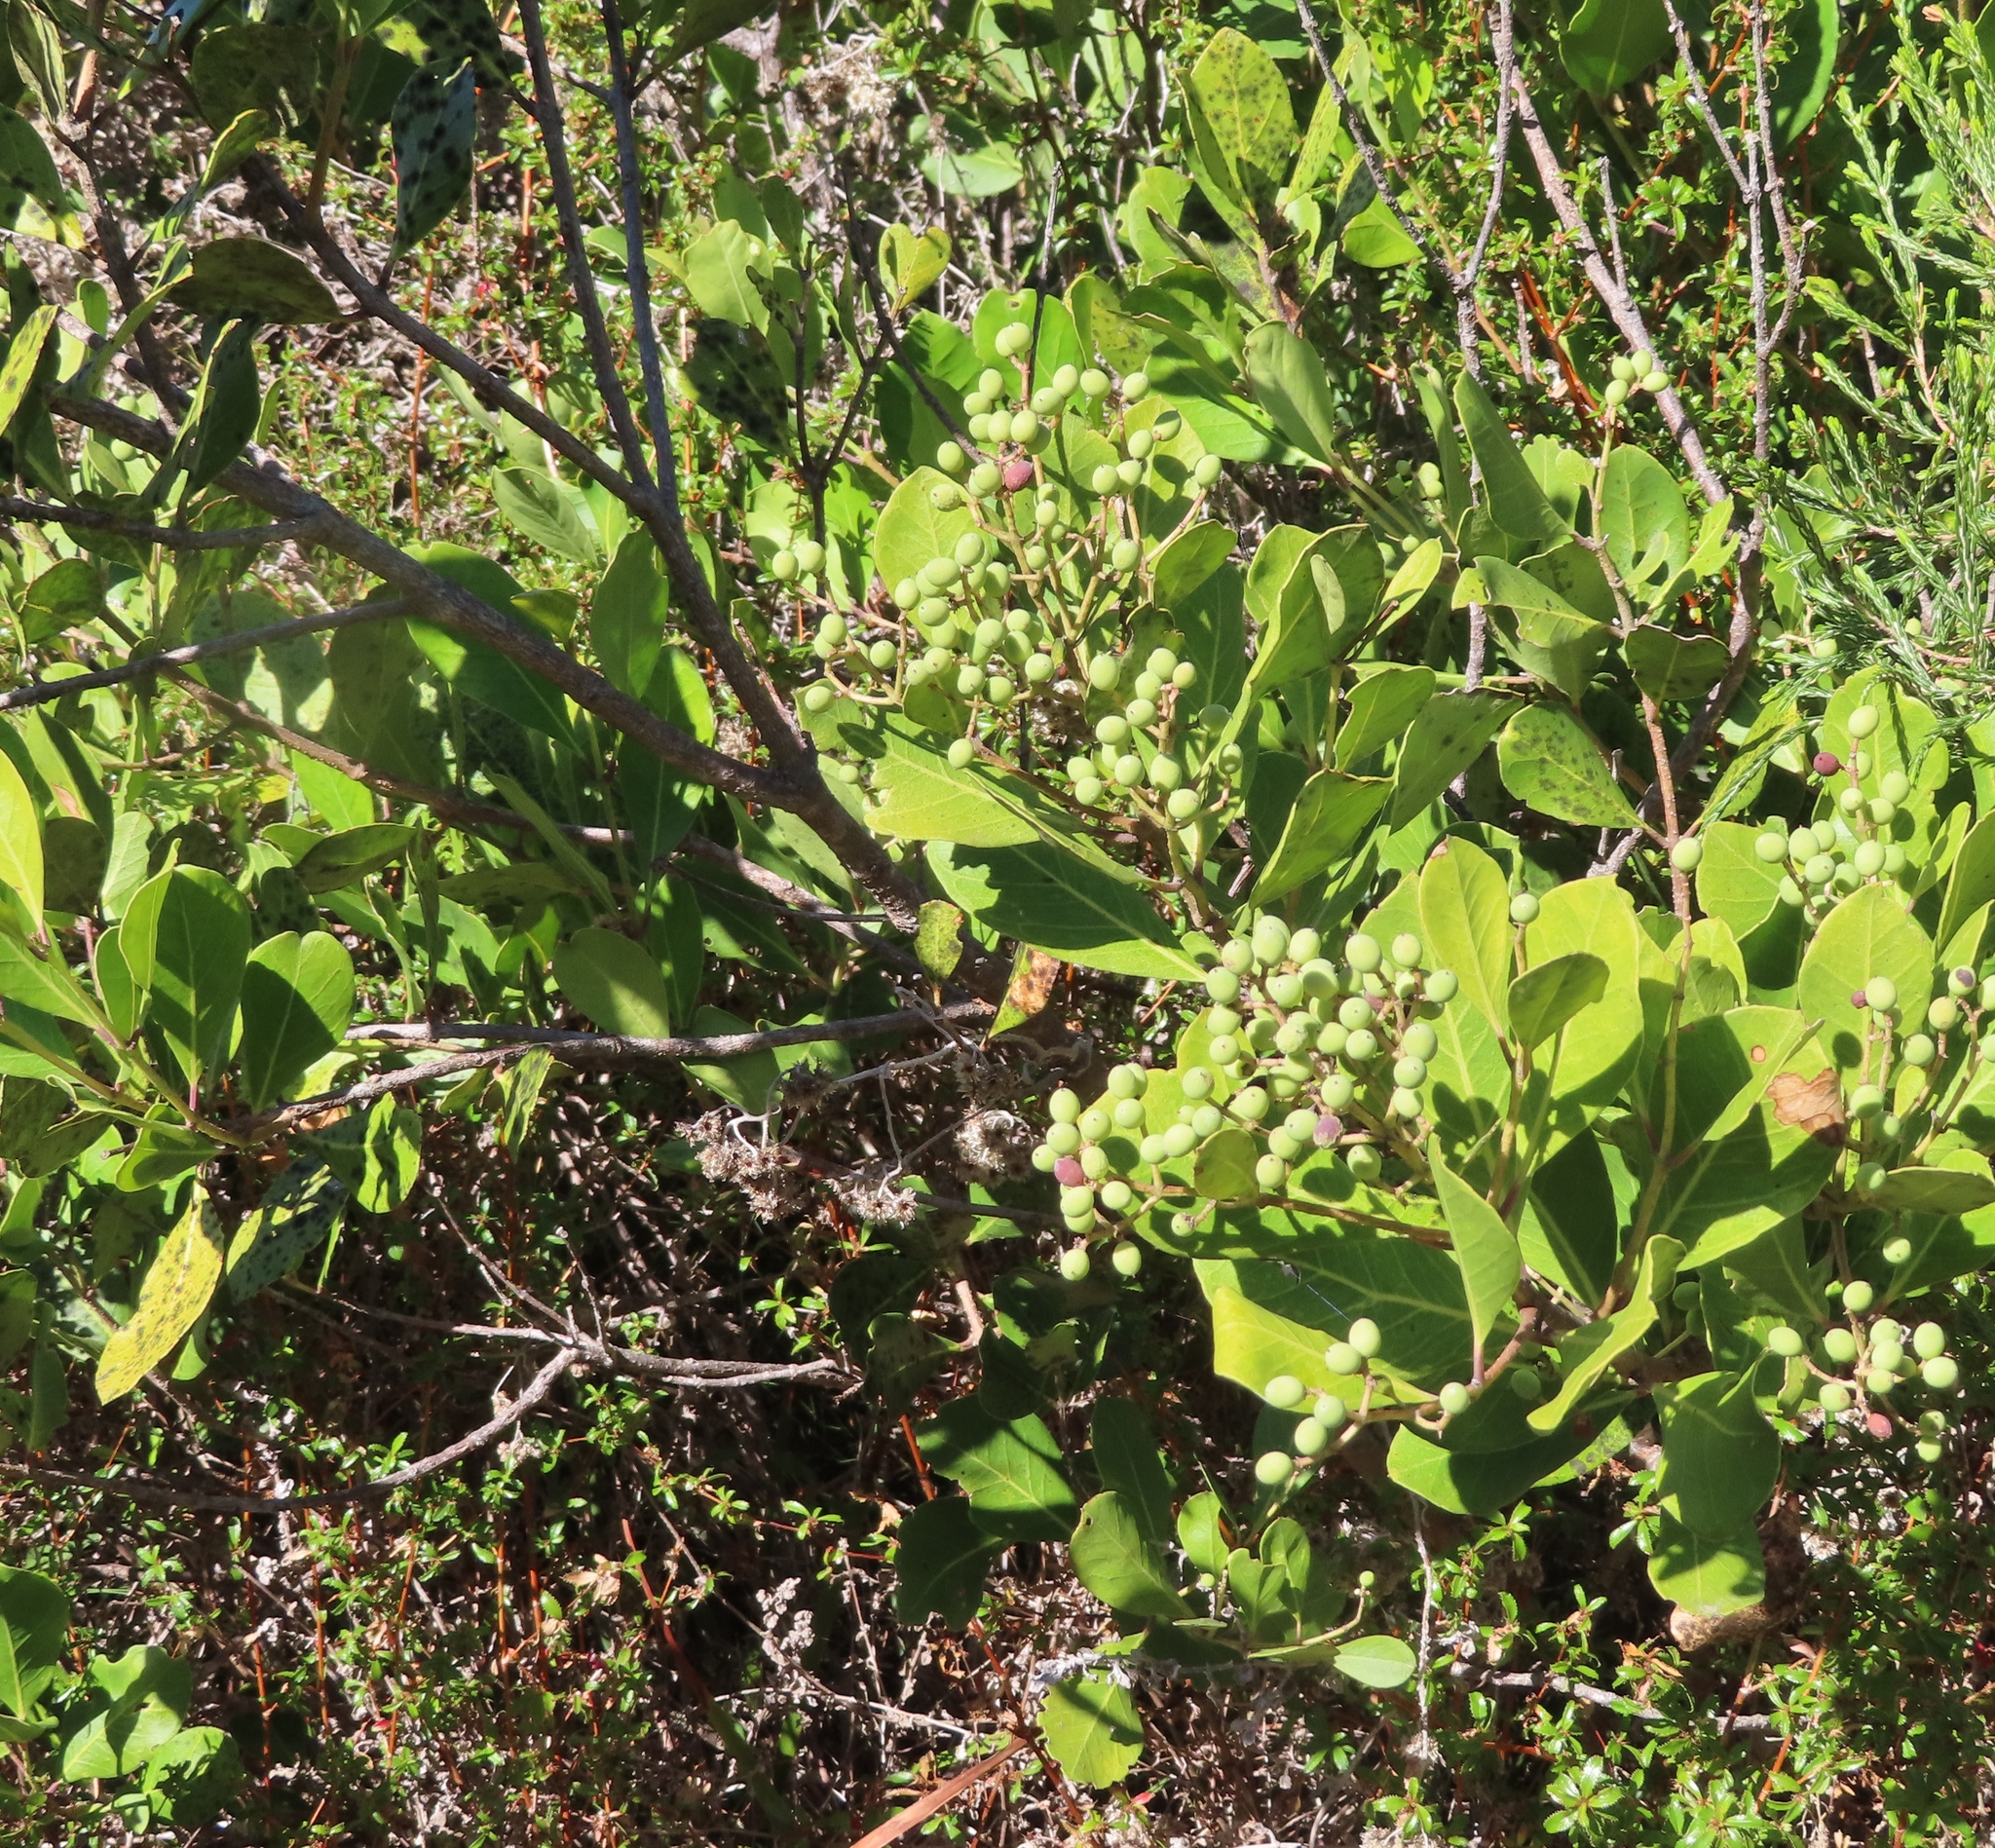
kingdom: Plantae
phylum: Tracheophyta
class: Magnoliopsida
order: Lamiales
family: Oleaceae
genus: Olea
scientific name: Olea capensis
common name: Black ironwood
